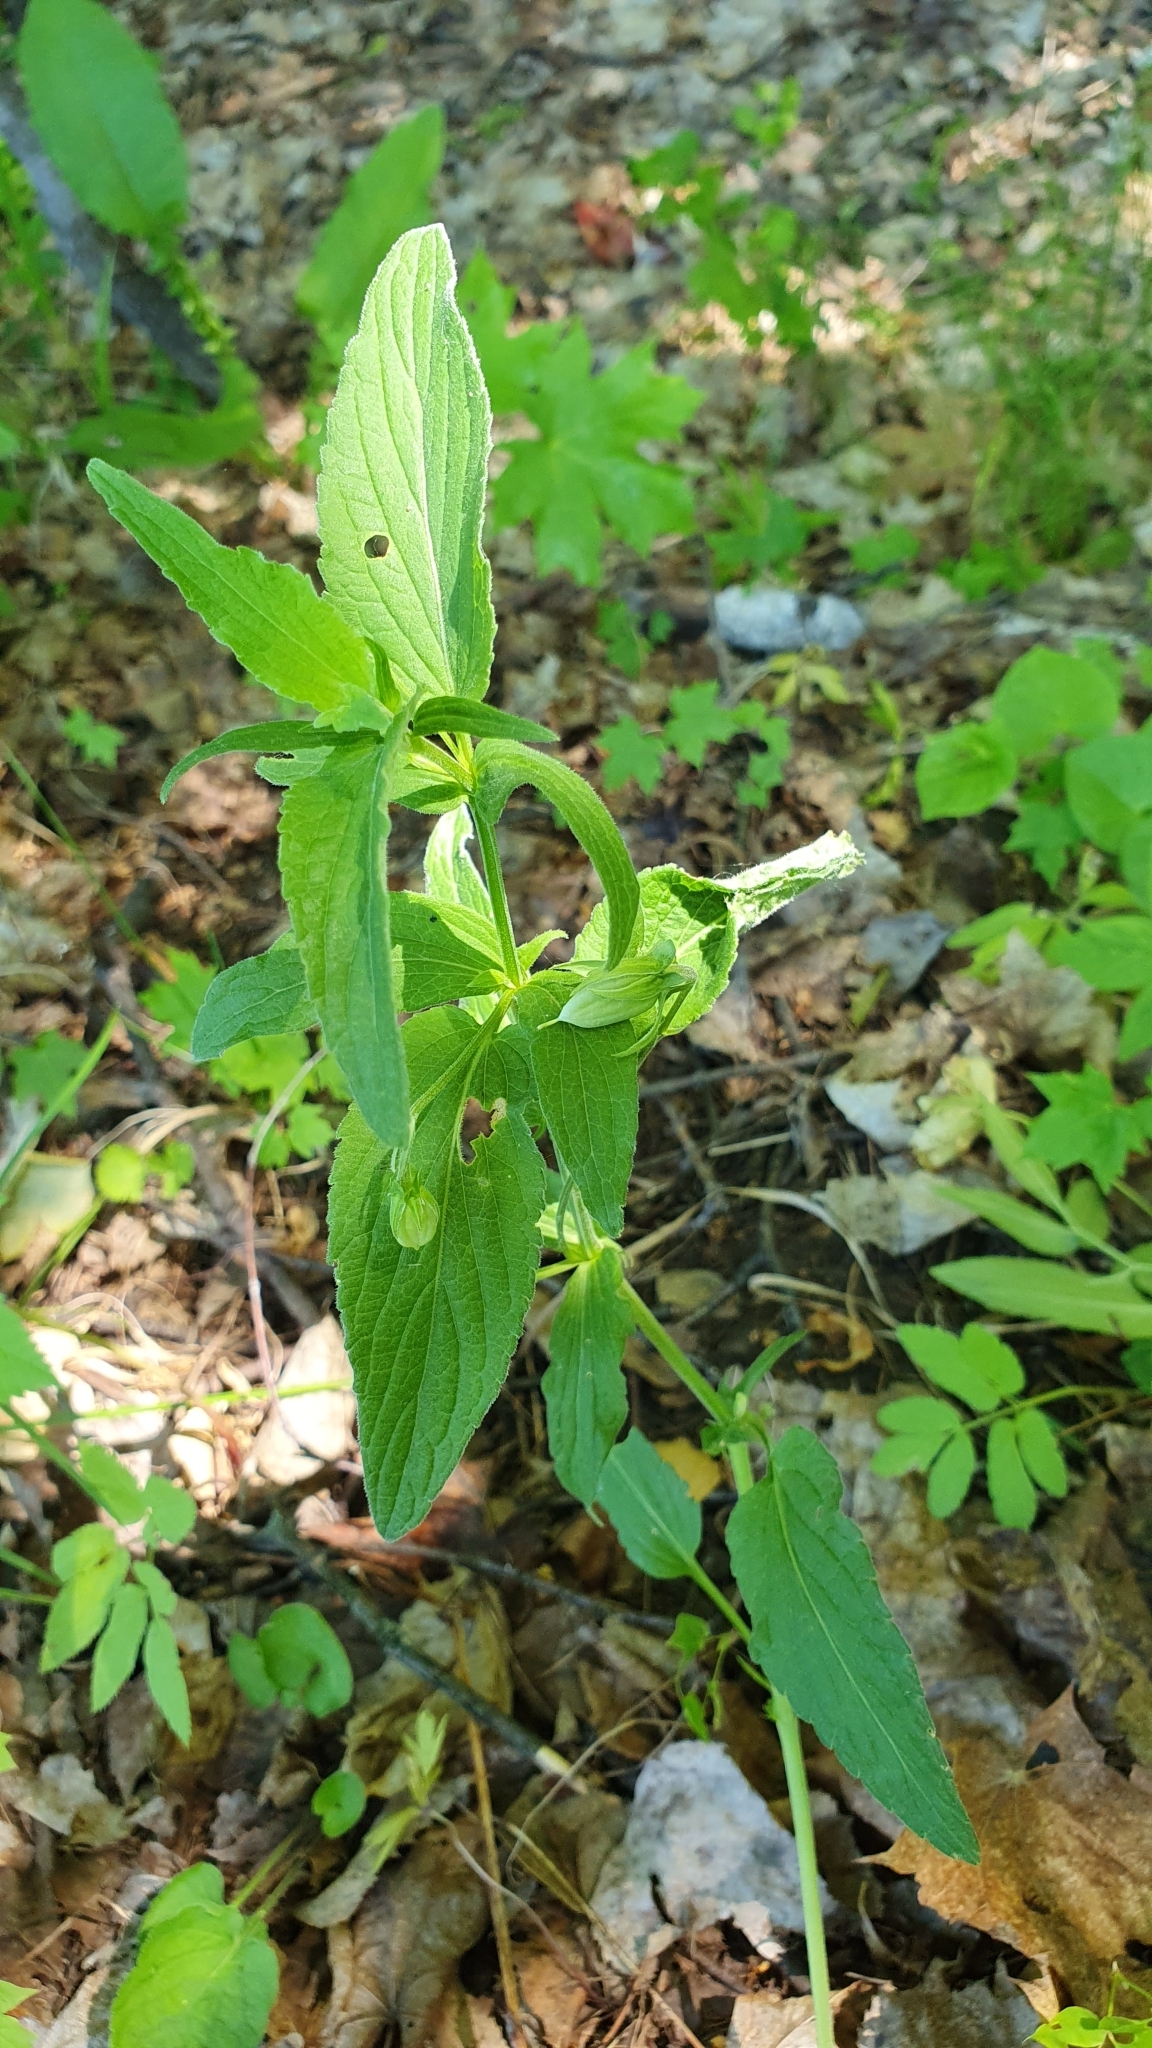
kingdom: Plantae
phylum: Tracheophyta
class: Magnoliopsida
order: Malpighiales
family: Violaceae
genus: Viola
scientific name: Viola elatior
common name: Tall violet
